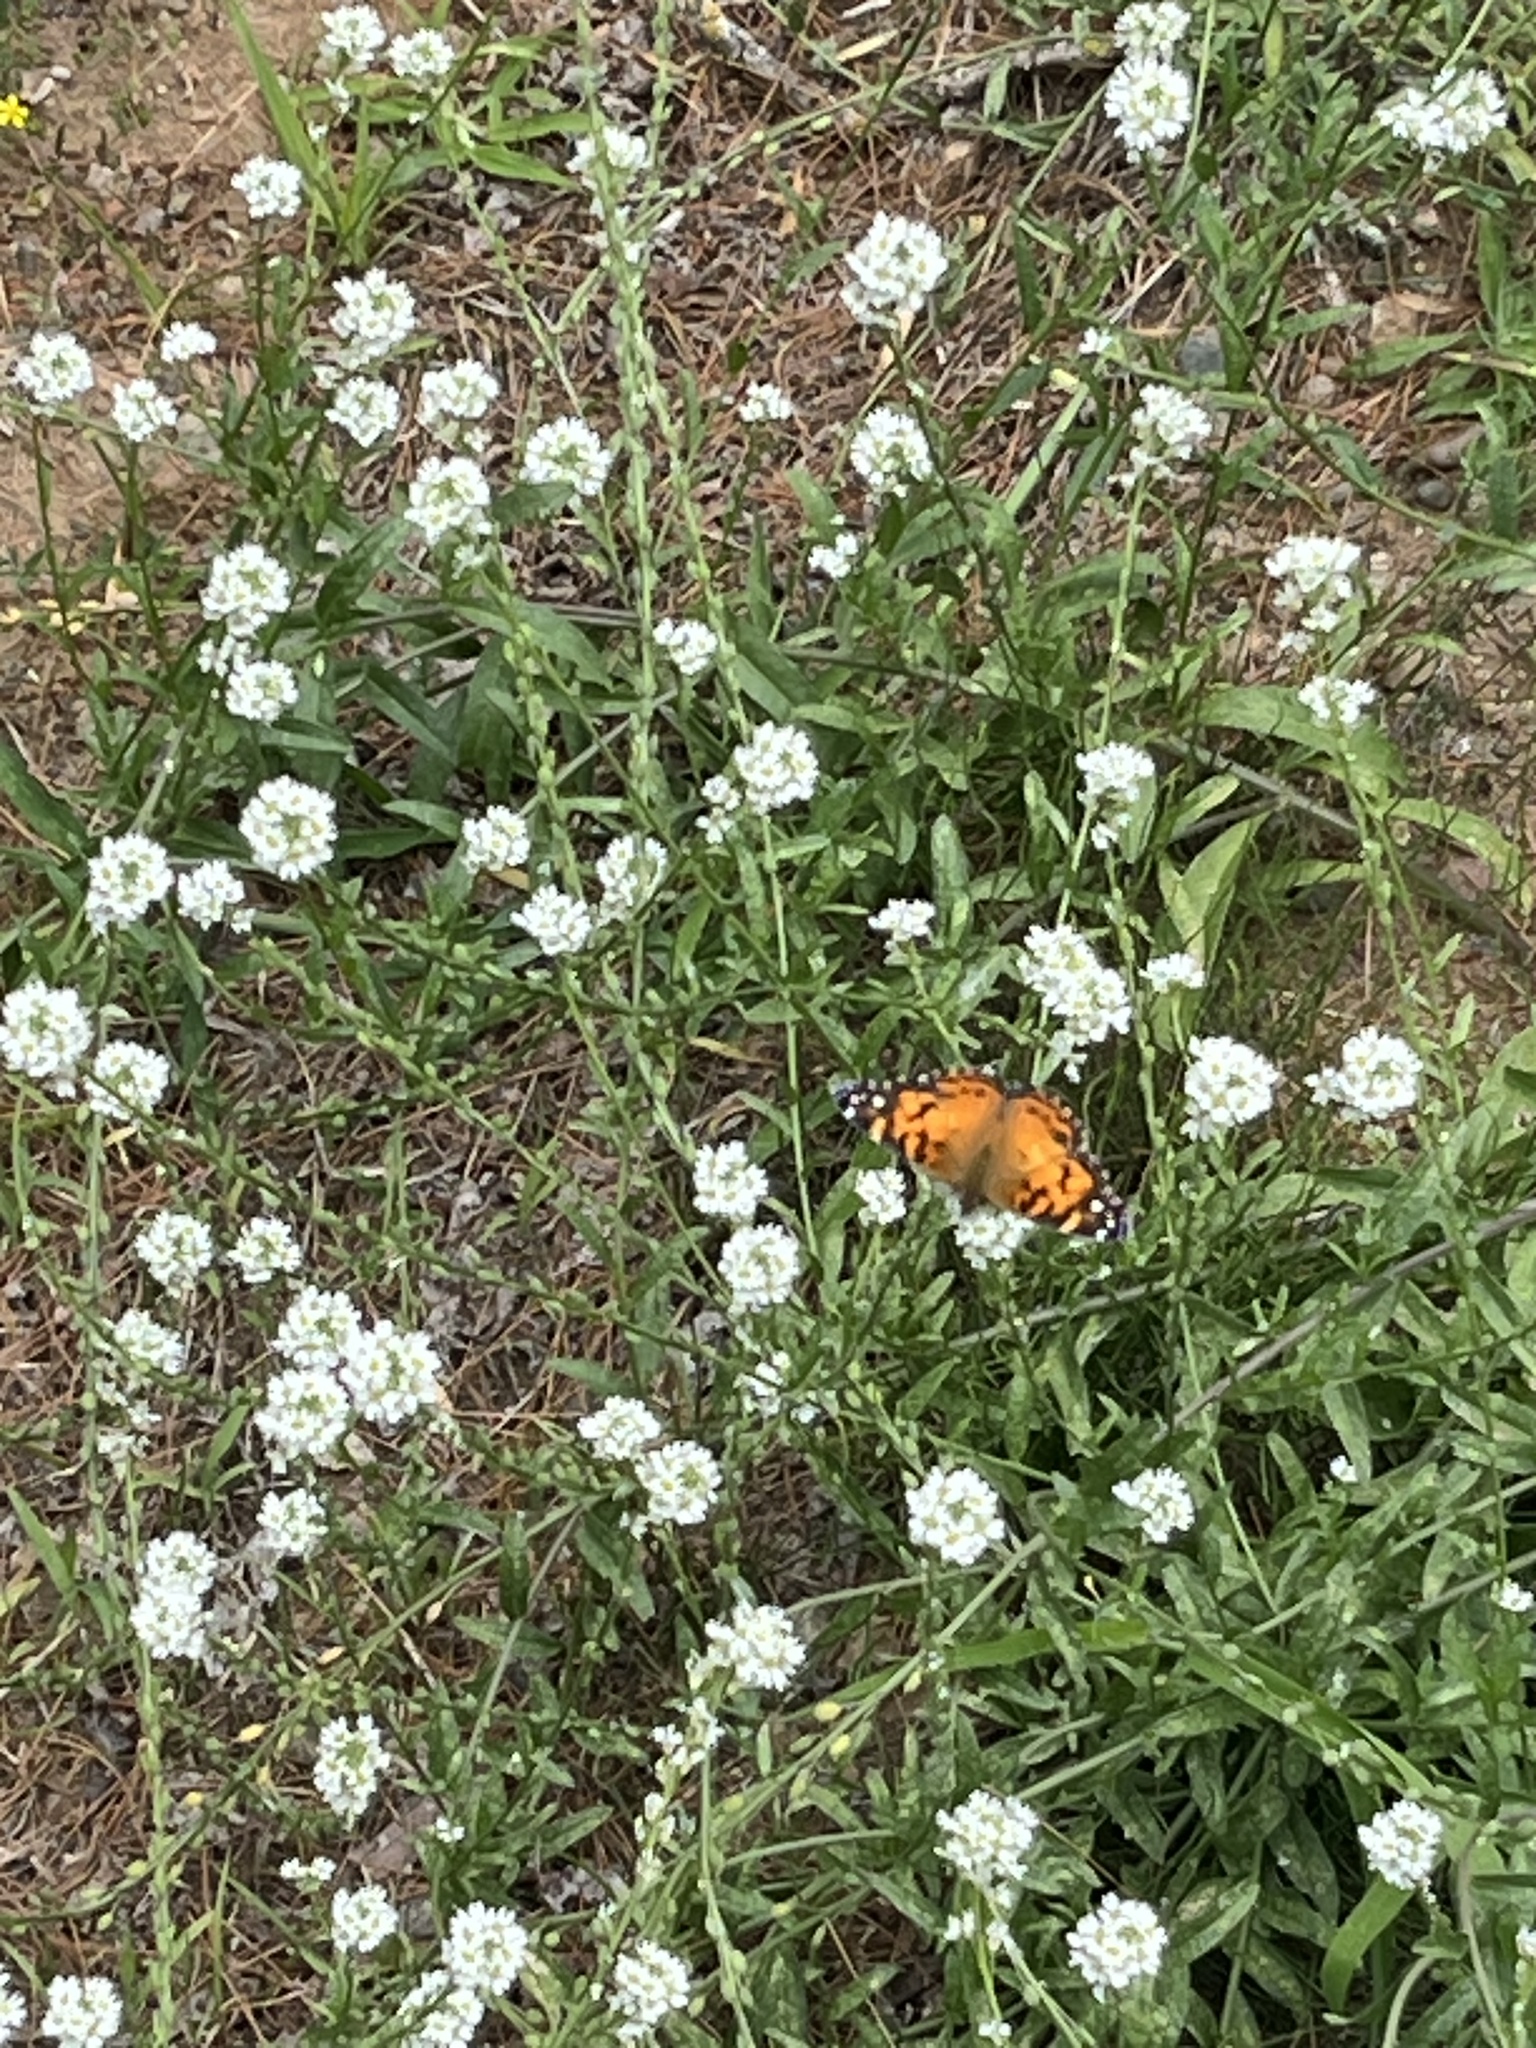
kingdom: Animalia
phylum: Arthropoda
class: Insecta
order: Lepidoptera
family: Nymphalidae
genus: Vanessa
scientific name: Vanessa virginiensis
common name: American lady
